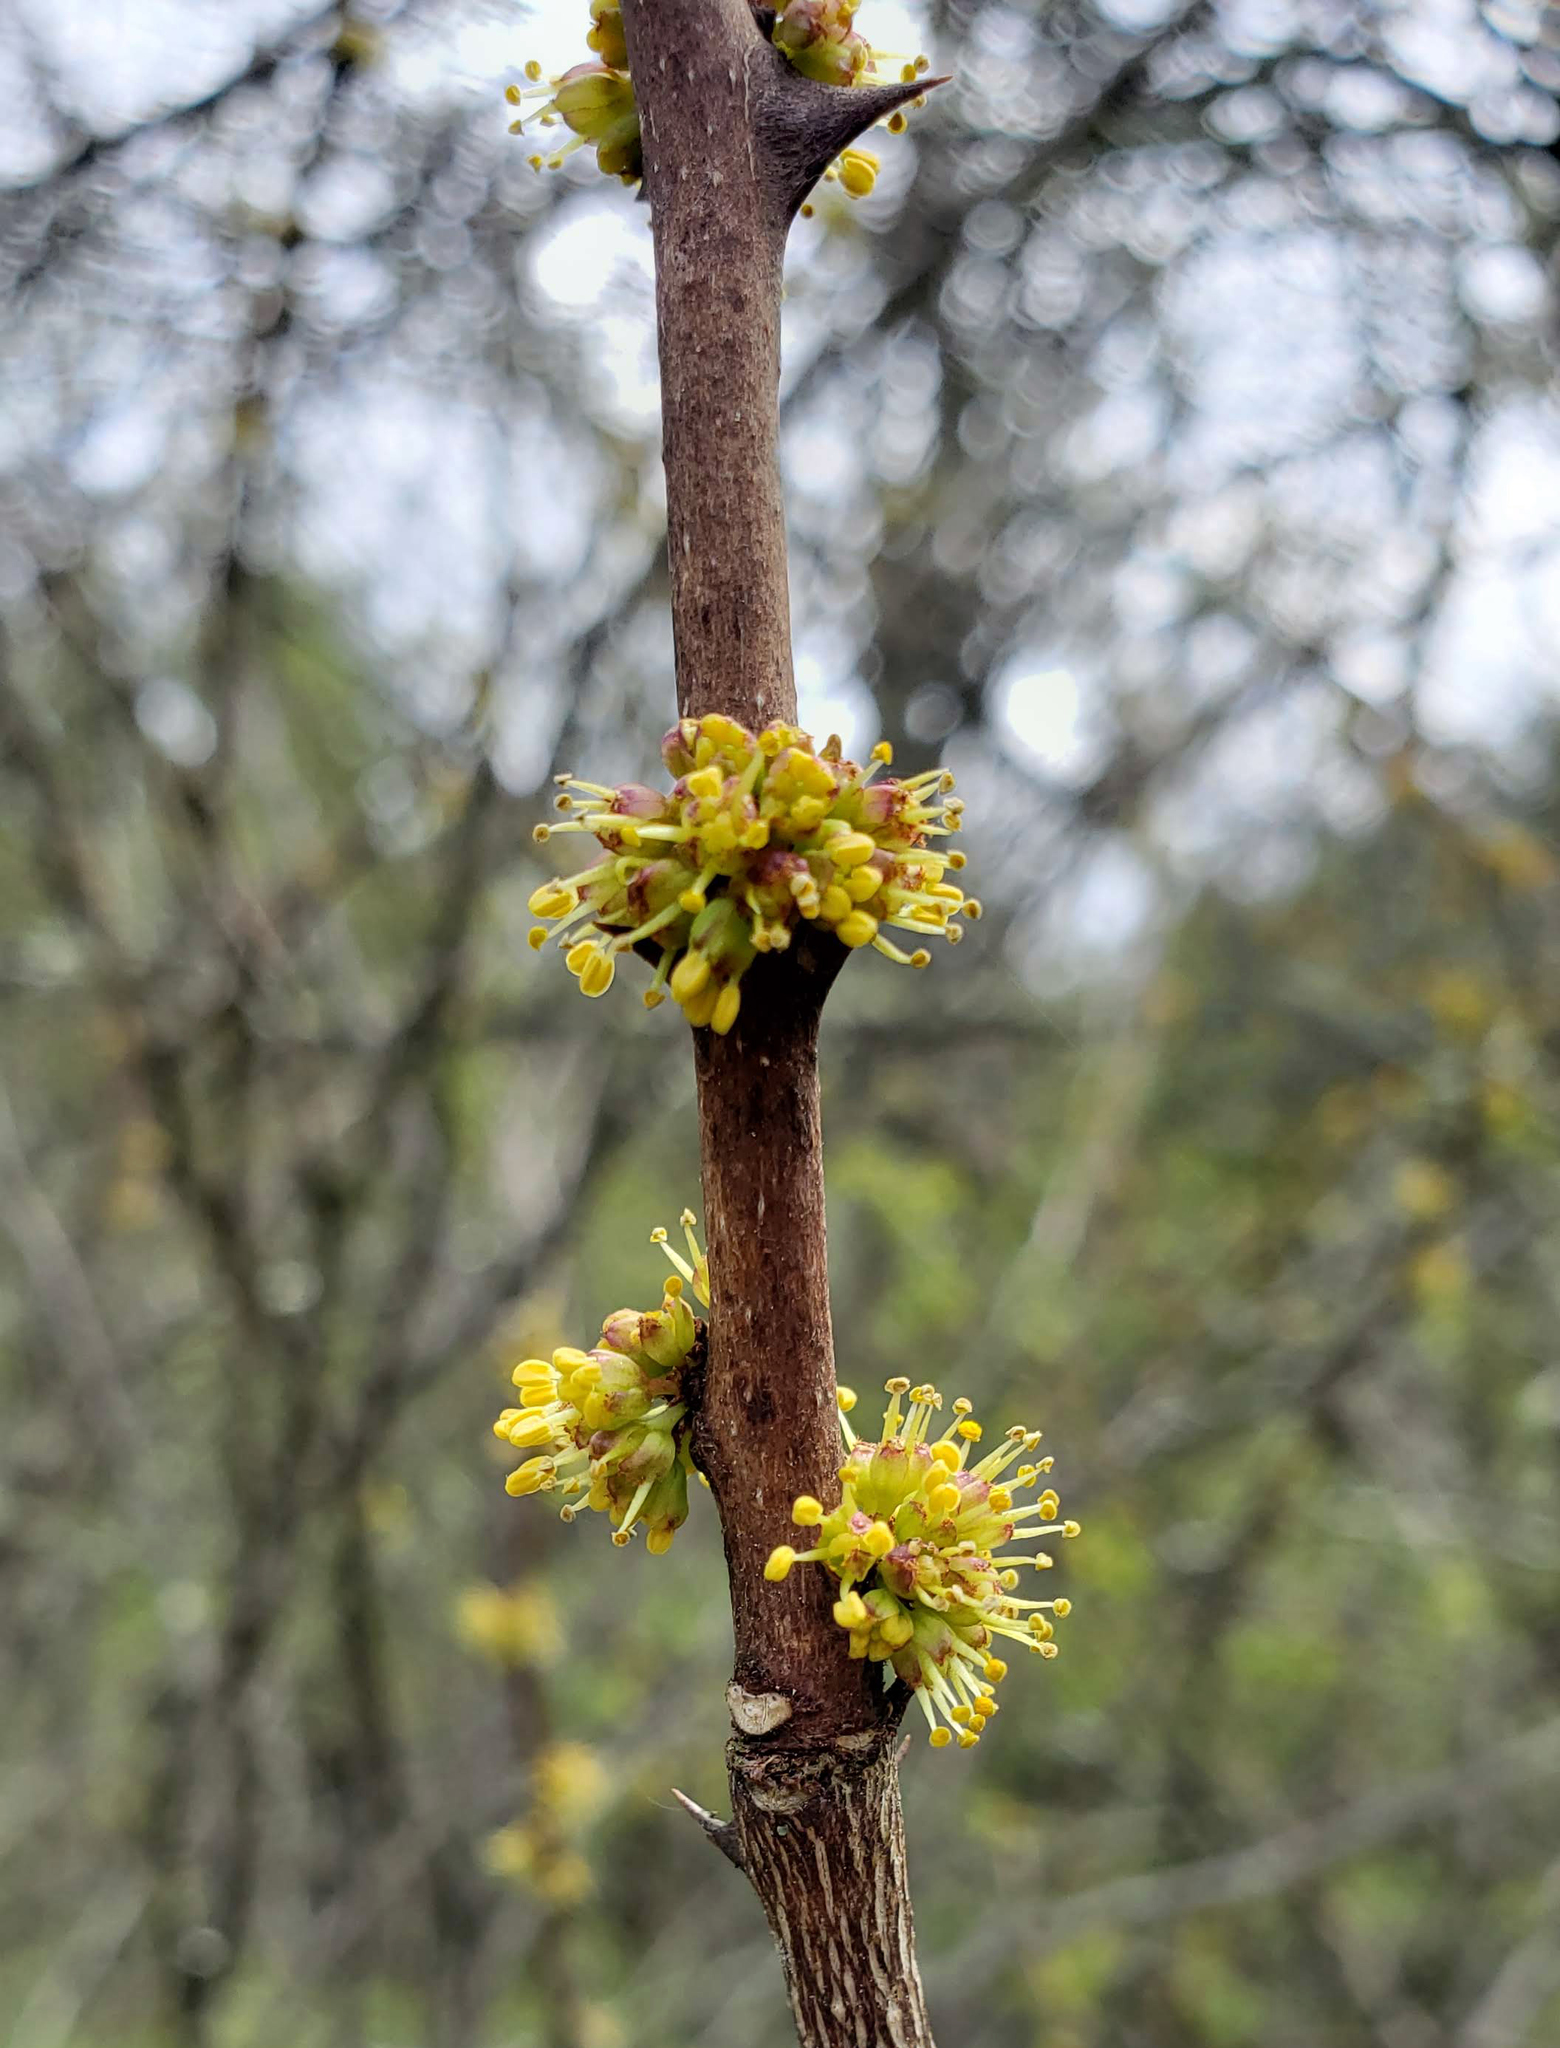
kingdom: Plantae
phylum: Tracheophyta
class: Magnoliopsida
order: Sapindales
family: Rutaceae
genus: Zanthoxylum
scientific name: Zanthoxylum americanum
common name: Northern prickly-ash
